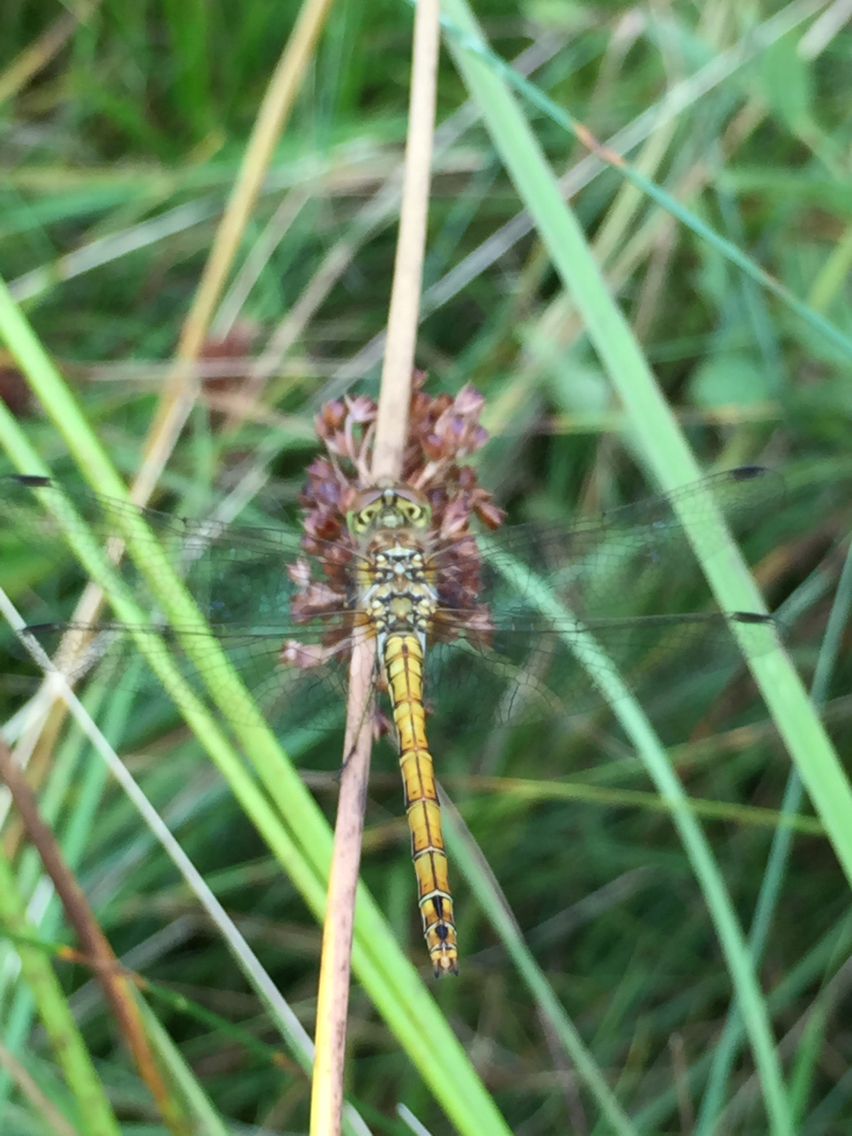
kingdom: Animalia
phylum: Arthropoda
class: Insecta
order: Odonata
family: Libellulidae
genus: Sympetrum
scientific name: Sympetrum sanguineum
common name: Ruddy darter
